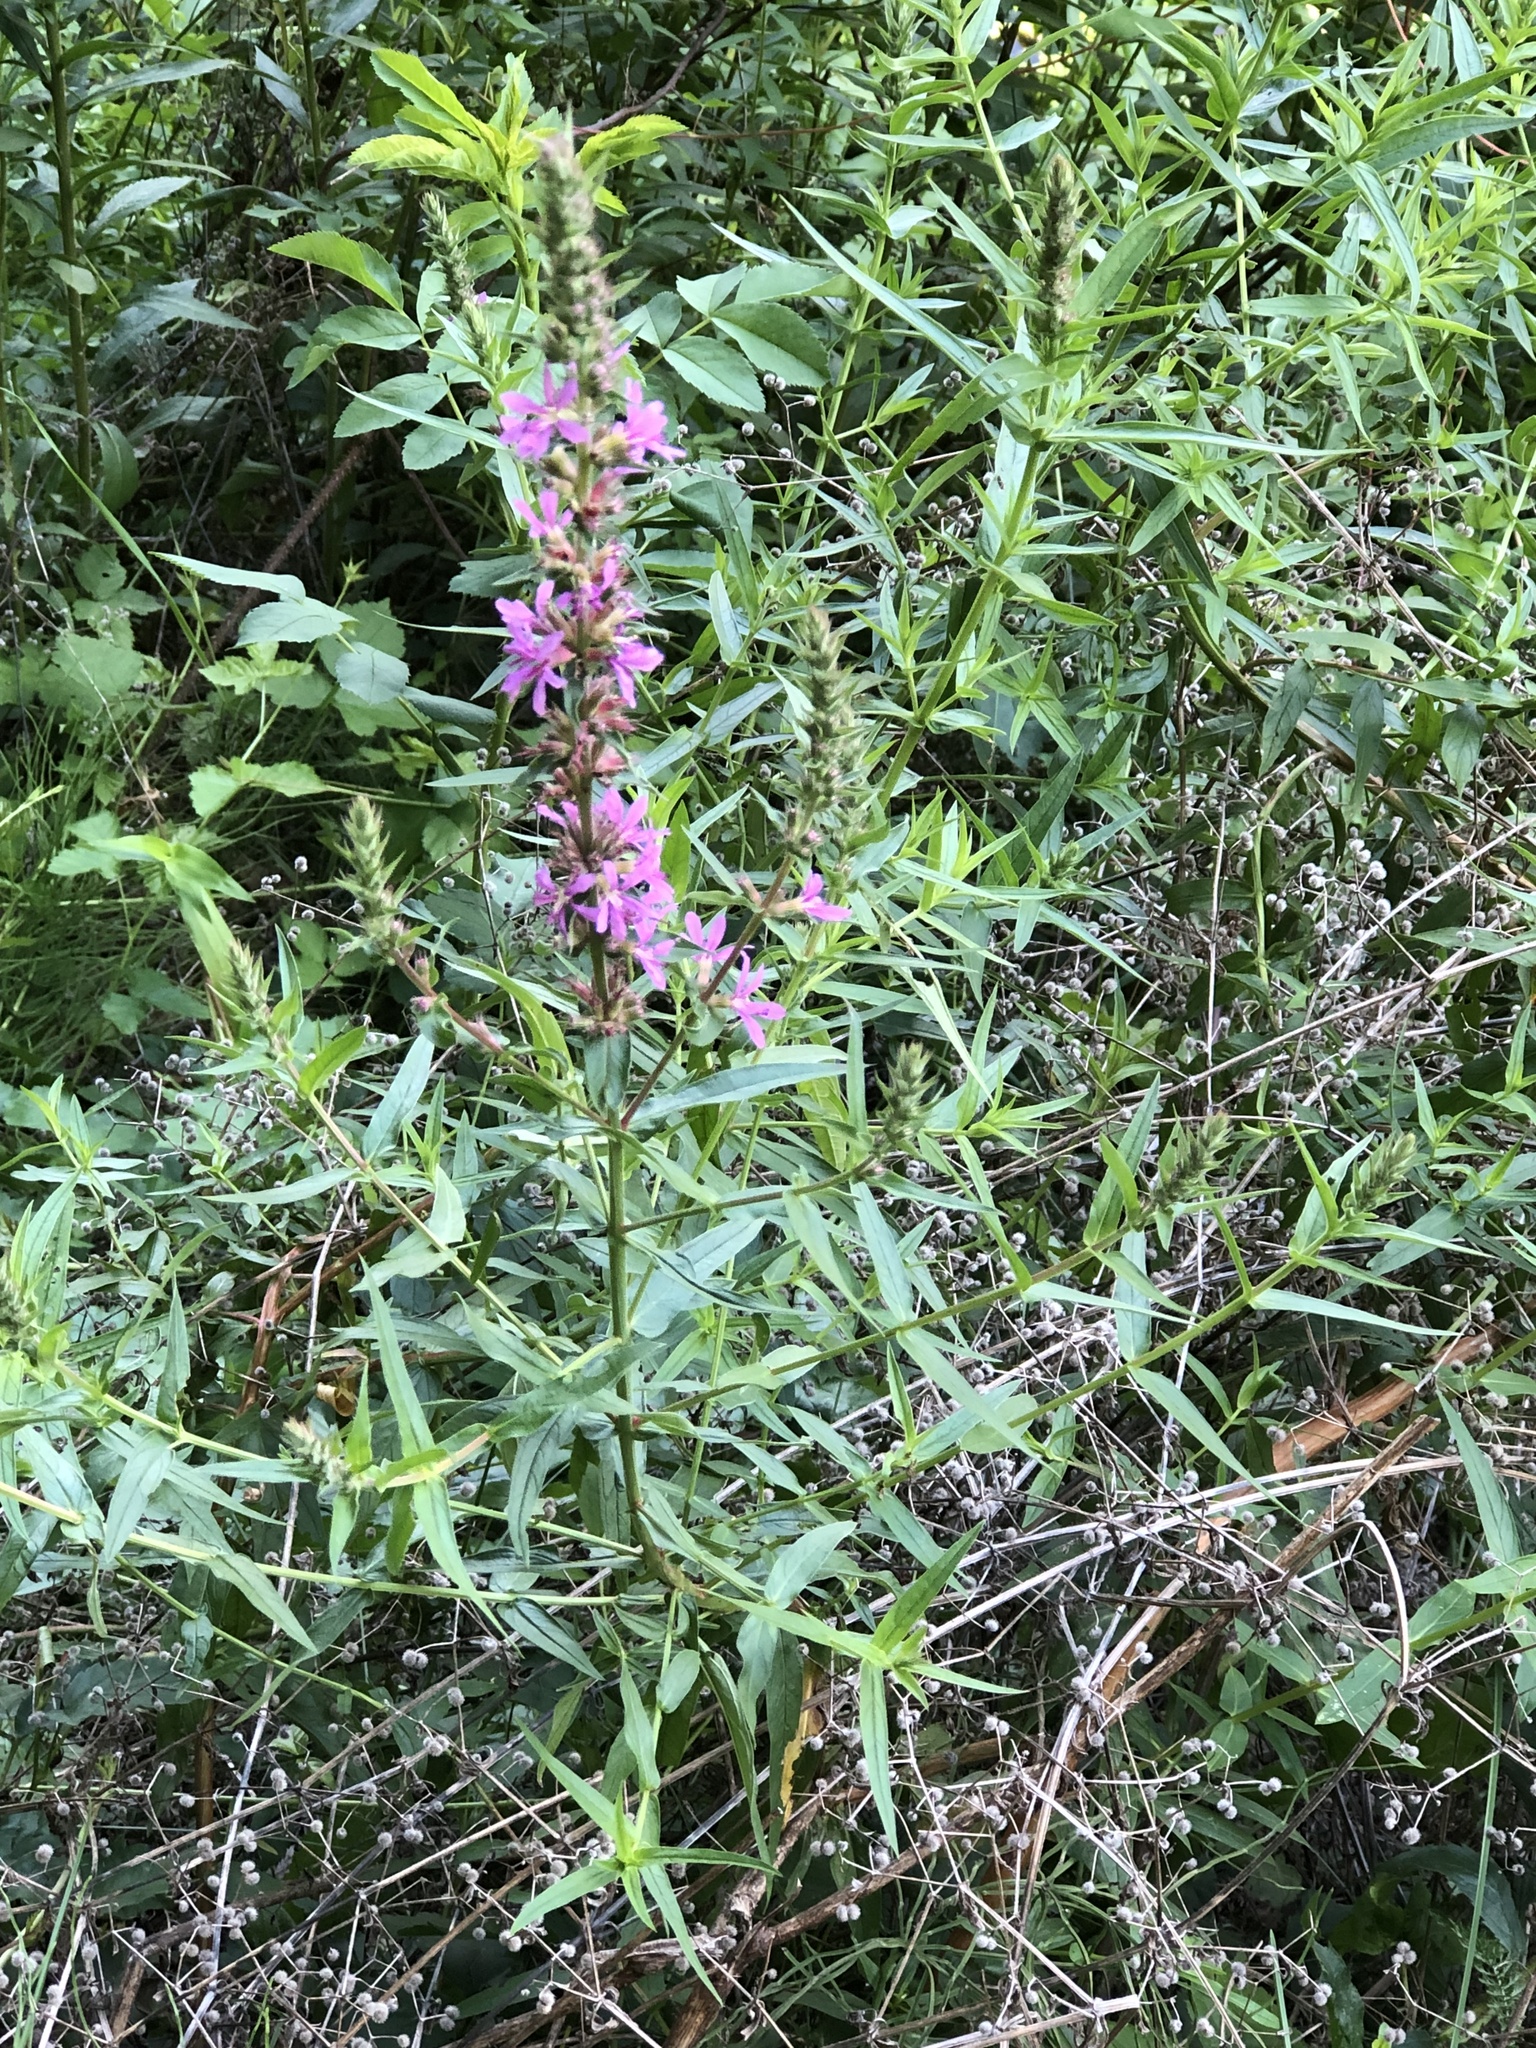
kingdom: Plantae
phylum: Tracheophyta
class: Magnoliopsida
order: Myrtales
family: Lythraceae
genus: Lythrum
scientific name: Lythrum salicaria
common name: Purple loosestrife
